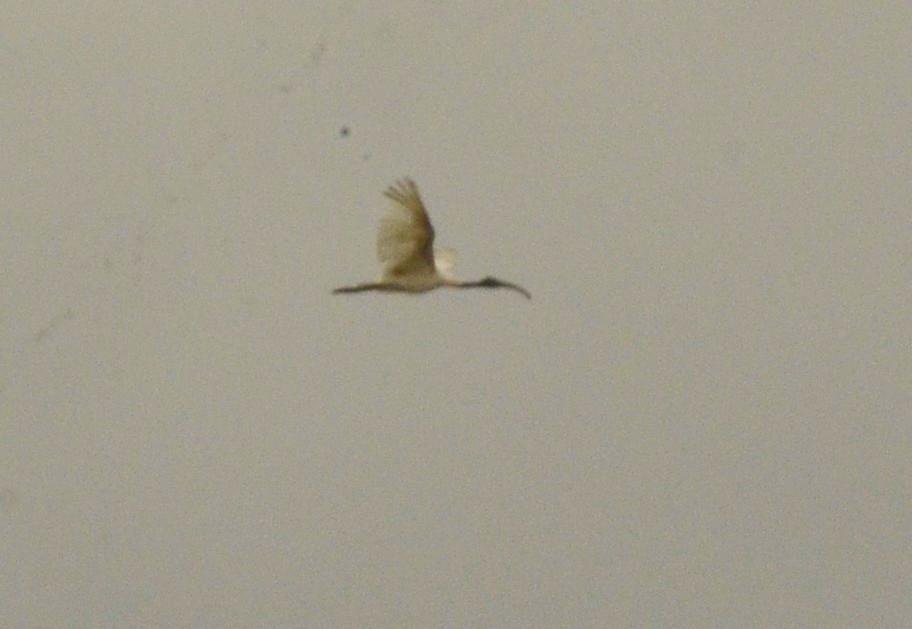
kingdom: Animalia
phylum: Chordata
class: Aves
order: Pelecaniformes
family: Threskiornithidae
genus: Threskiornis
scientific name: Threskiornis melanocephalus
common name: Black-headed ibis
